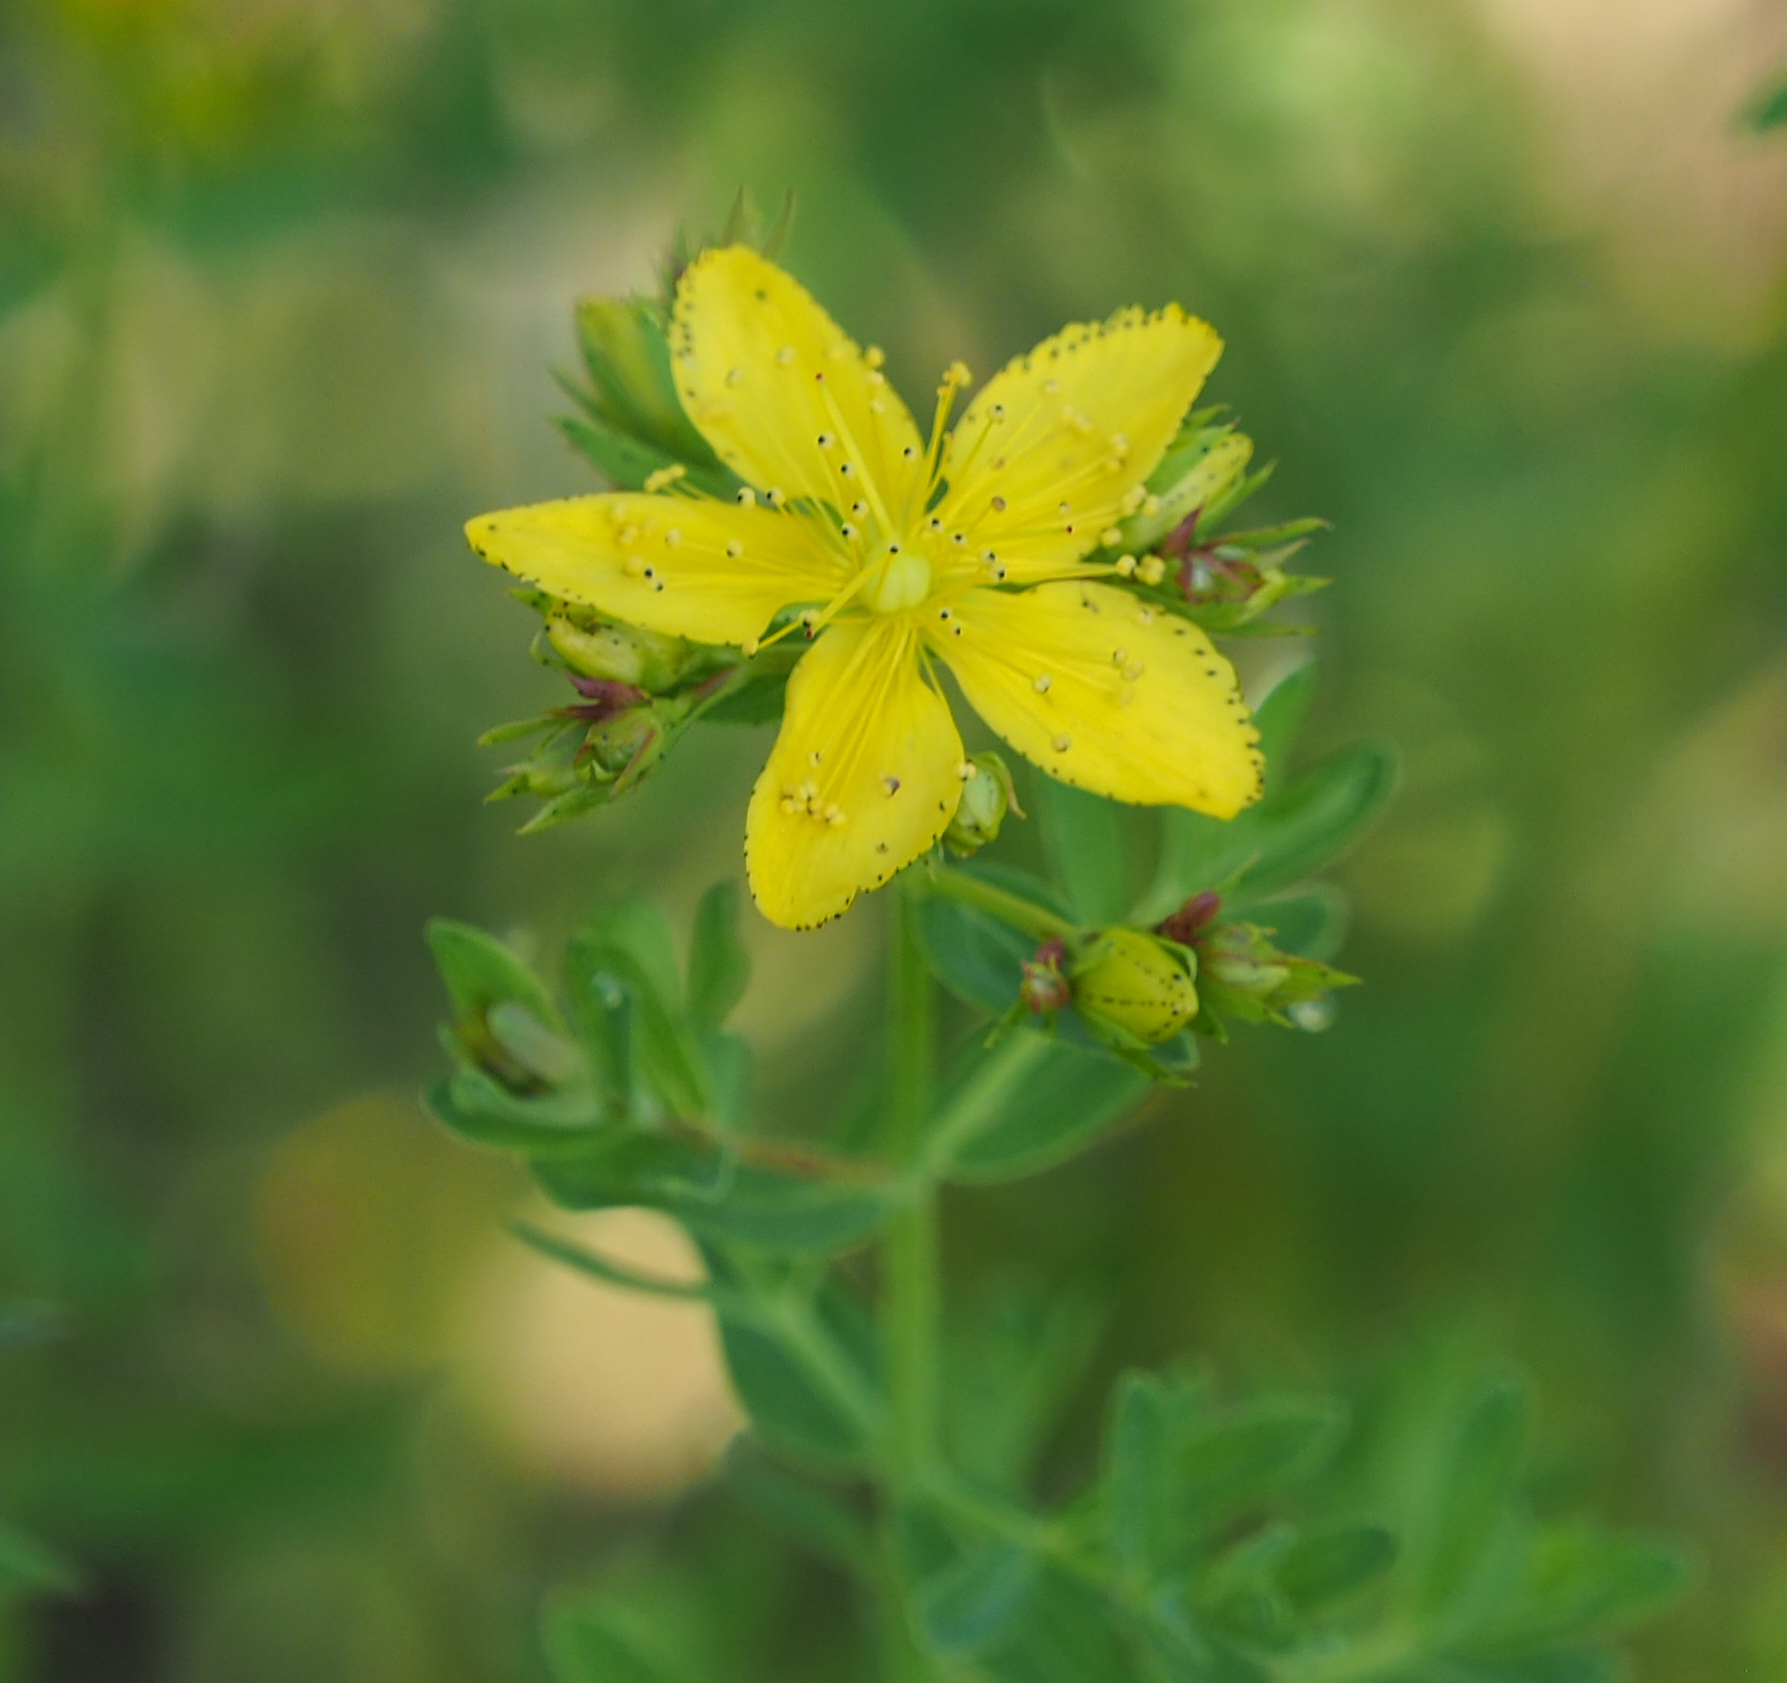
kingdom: Plantae
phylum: Tracheophyta
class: Magnoliopsida
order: Malpighiales
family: Hypericaceae
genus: Hypericum
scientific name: Hypericum perforatum
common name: Common st. johnswort
